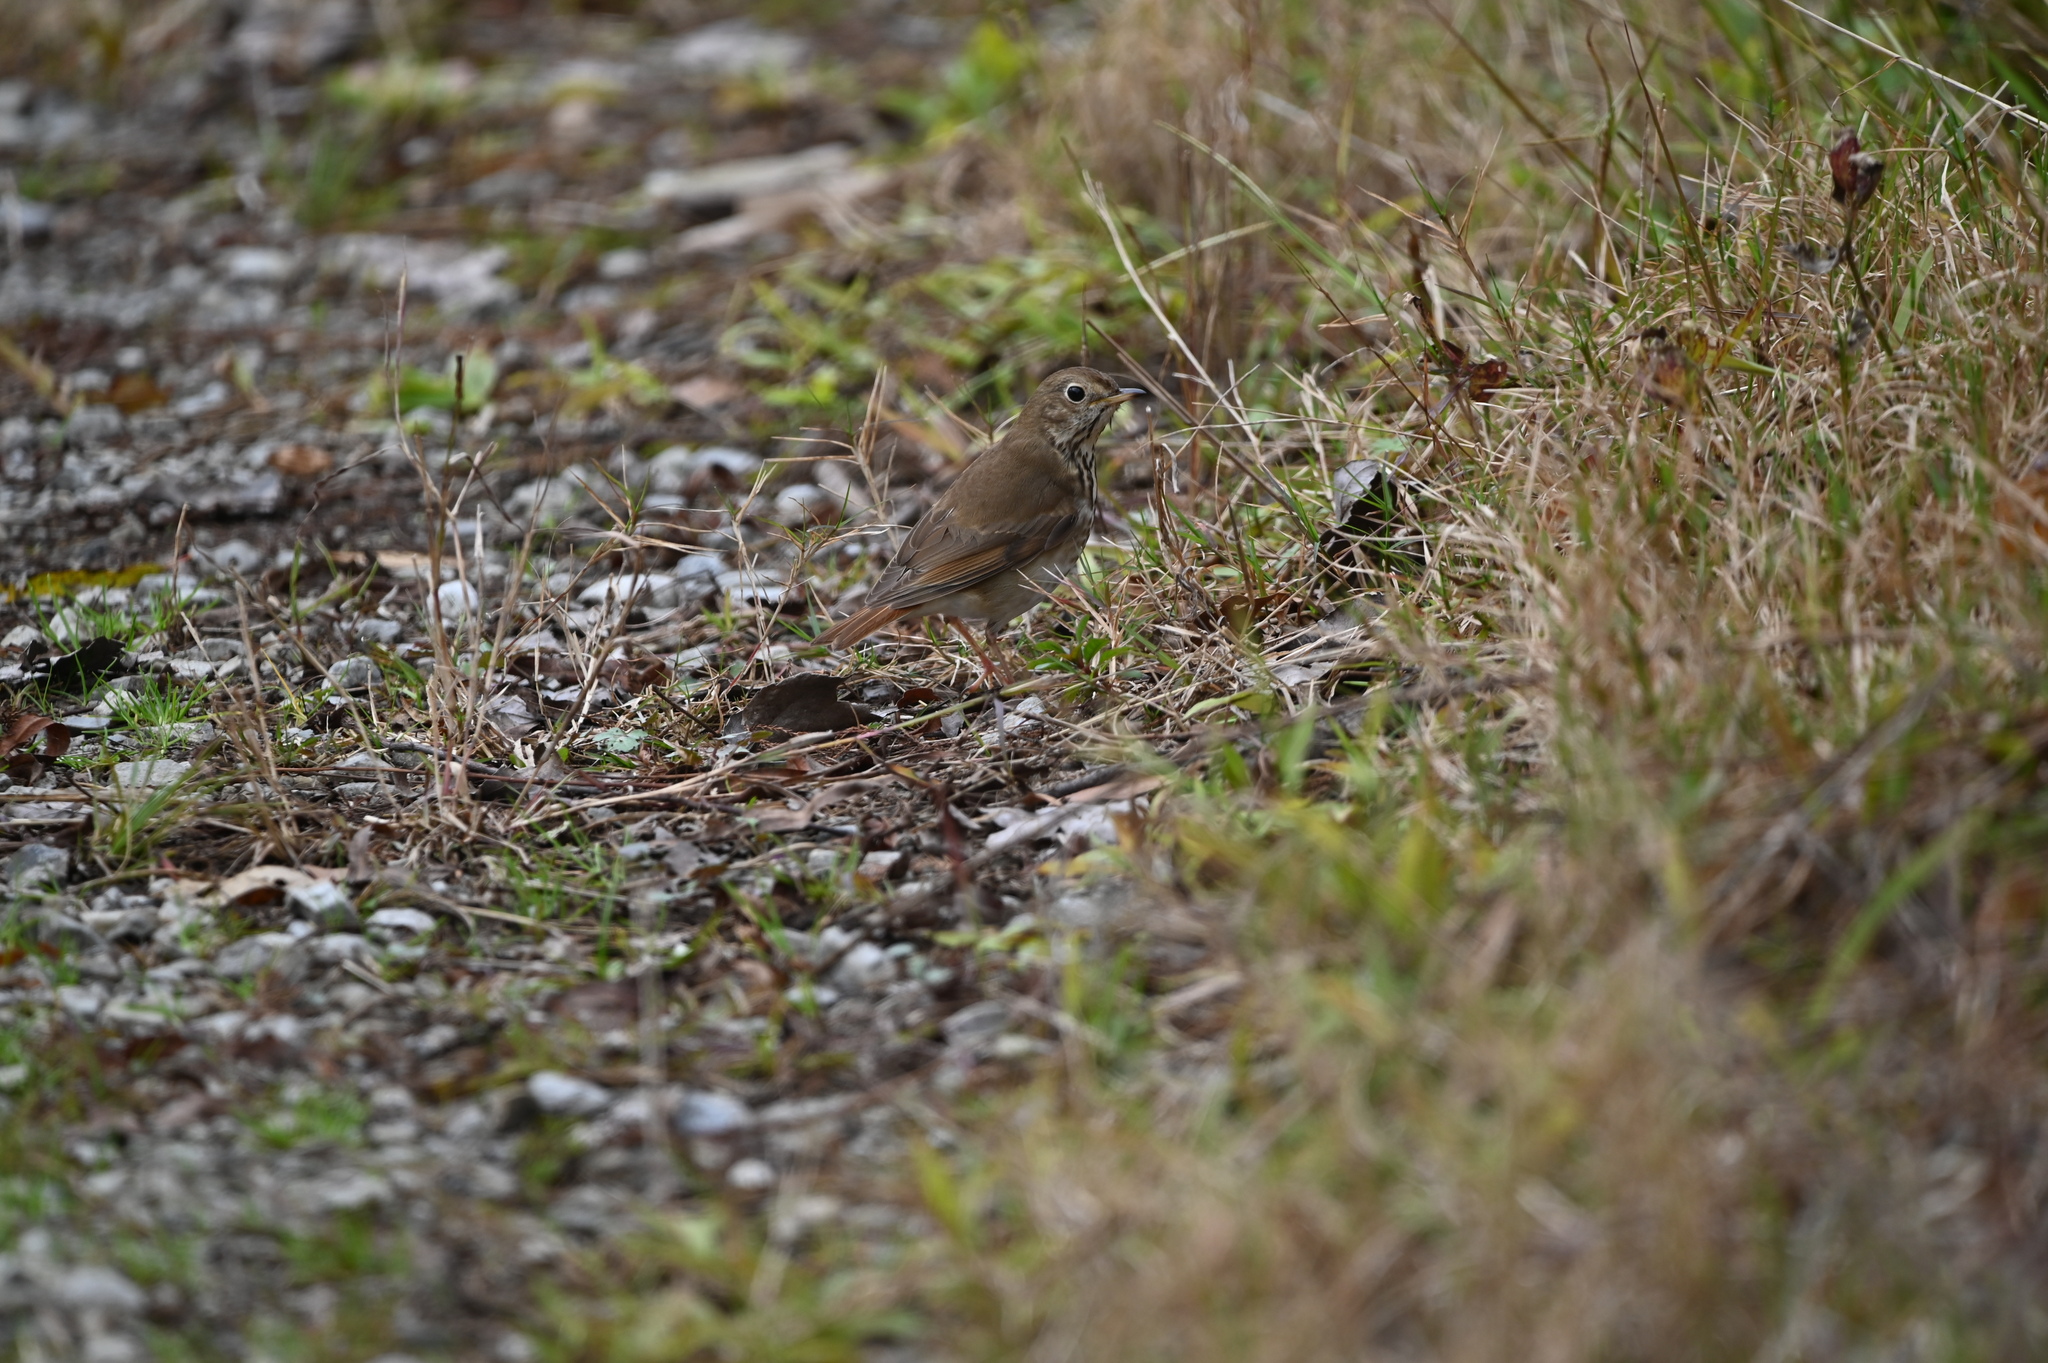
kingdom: Animalia
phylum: Chordata
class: Aves
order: Passeriformes
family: Turdidae
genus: Catharus
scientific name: Catharus guttatus
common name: Hermit thrush
